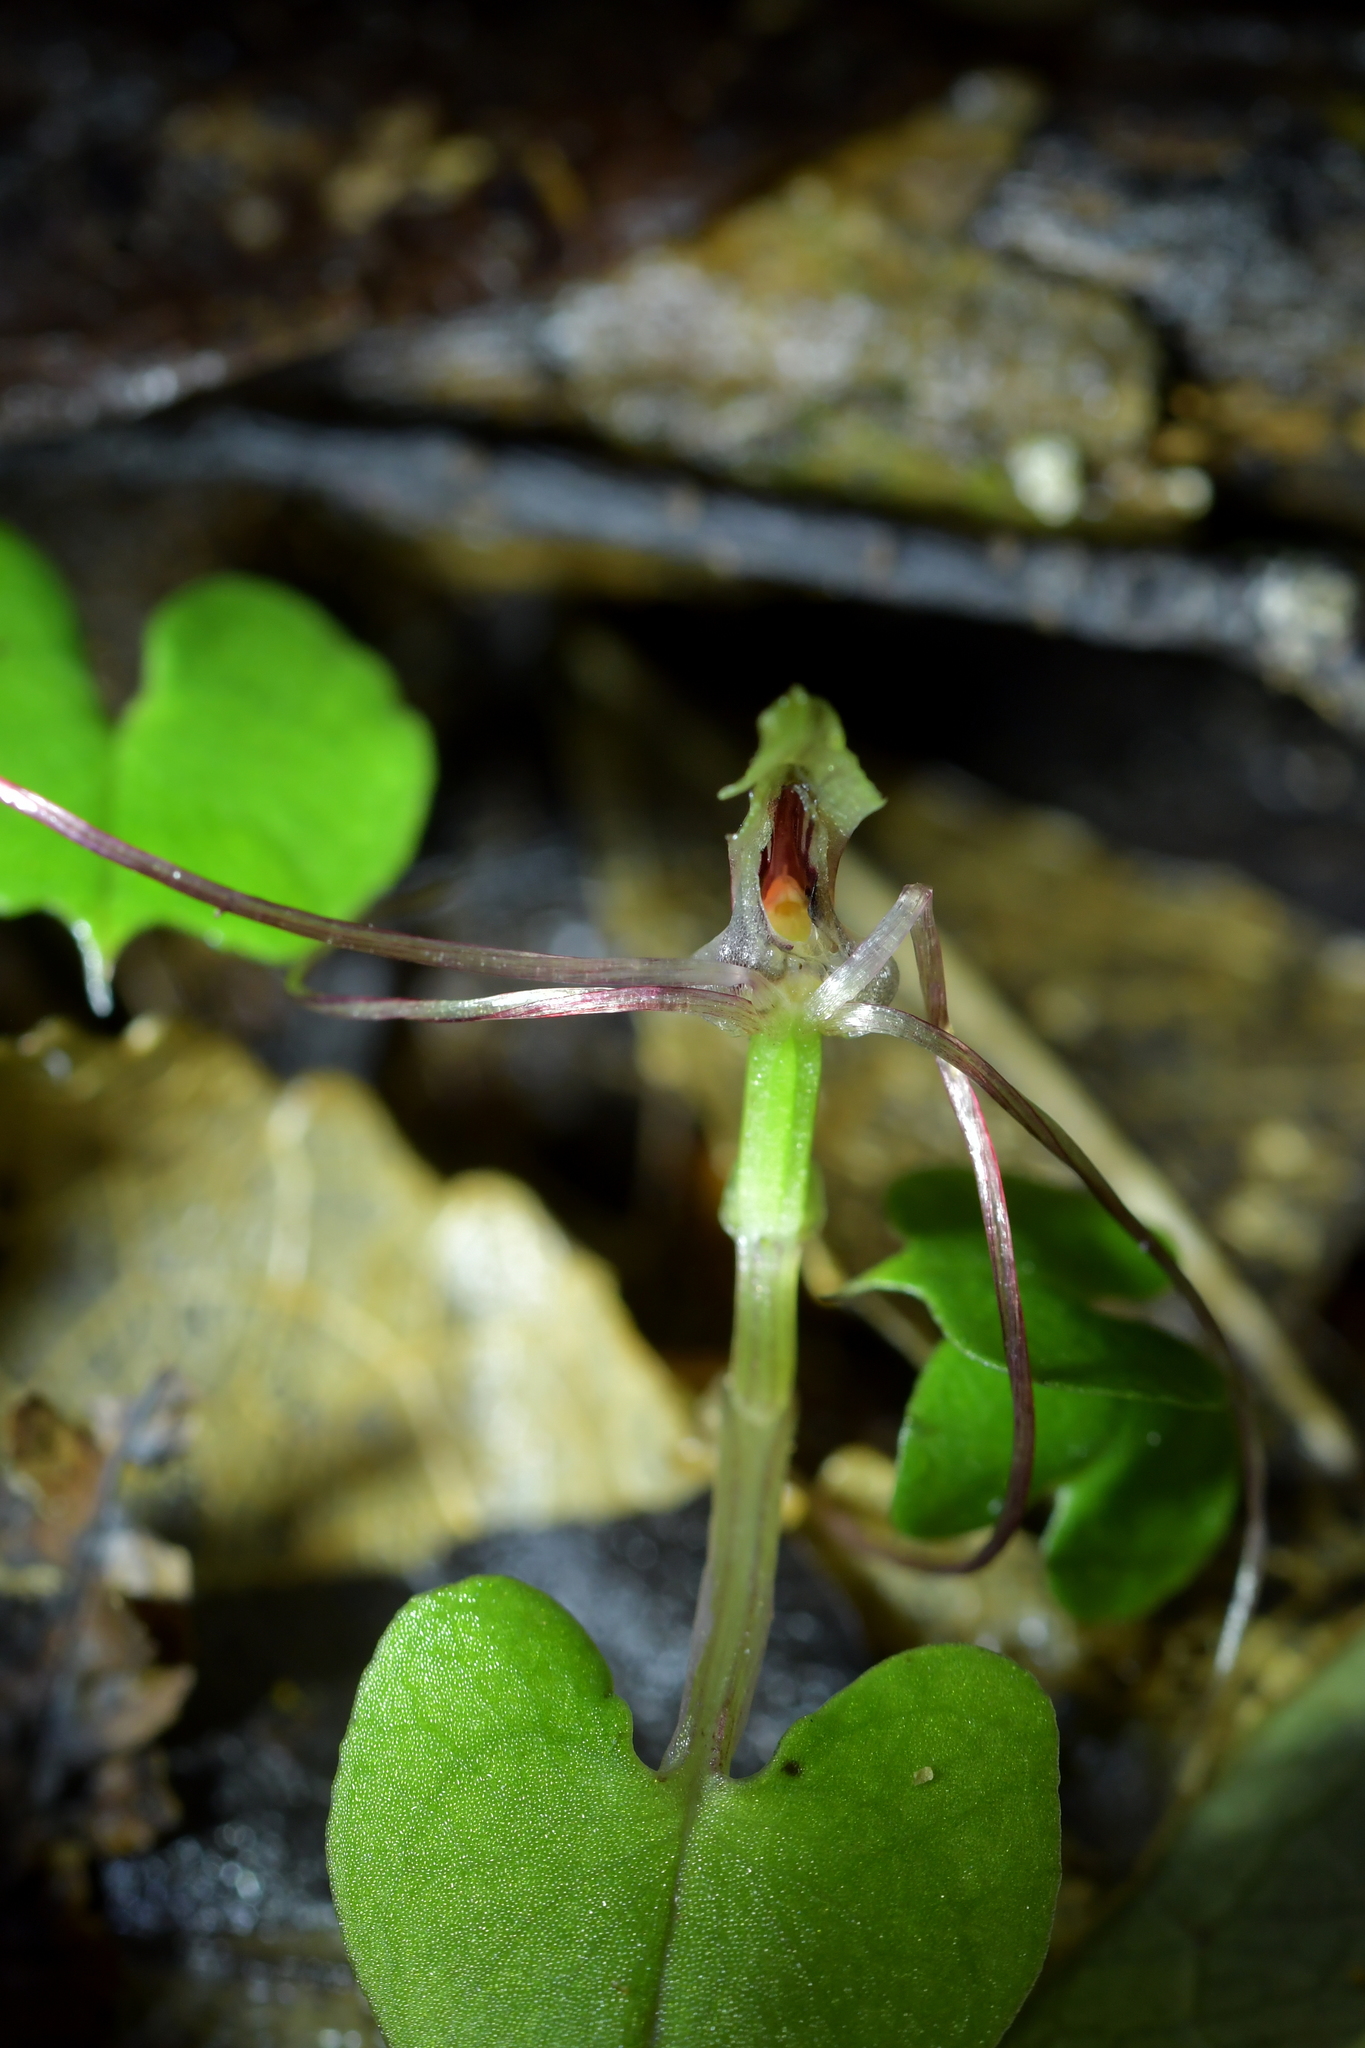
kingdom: Plantae
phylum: Tracheophyta
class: Liliopsida
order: Asparagales
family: Orchidaceae
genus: Corybas
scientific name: Corybas vitreus
